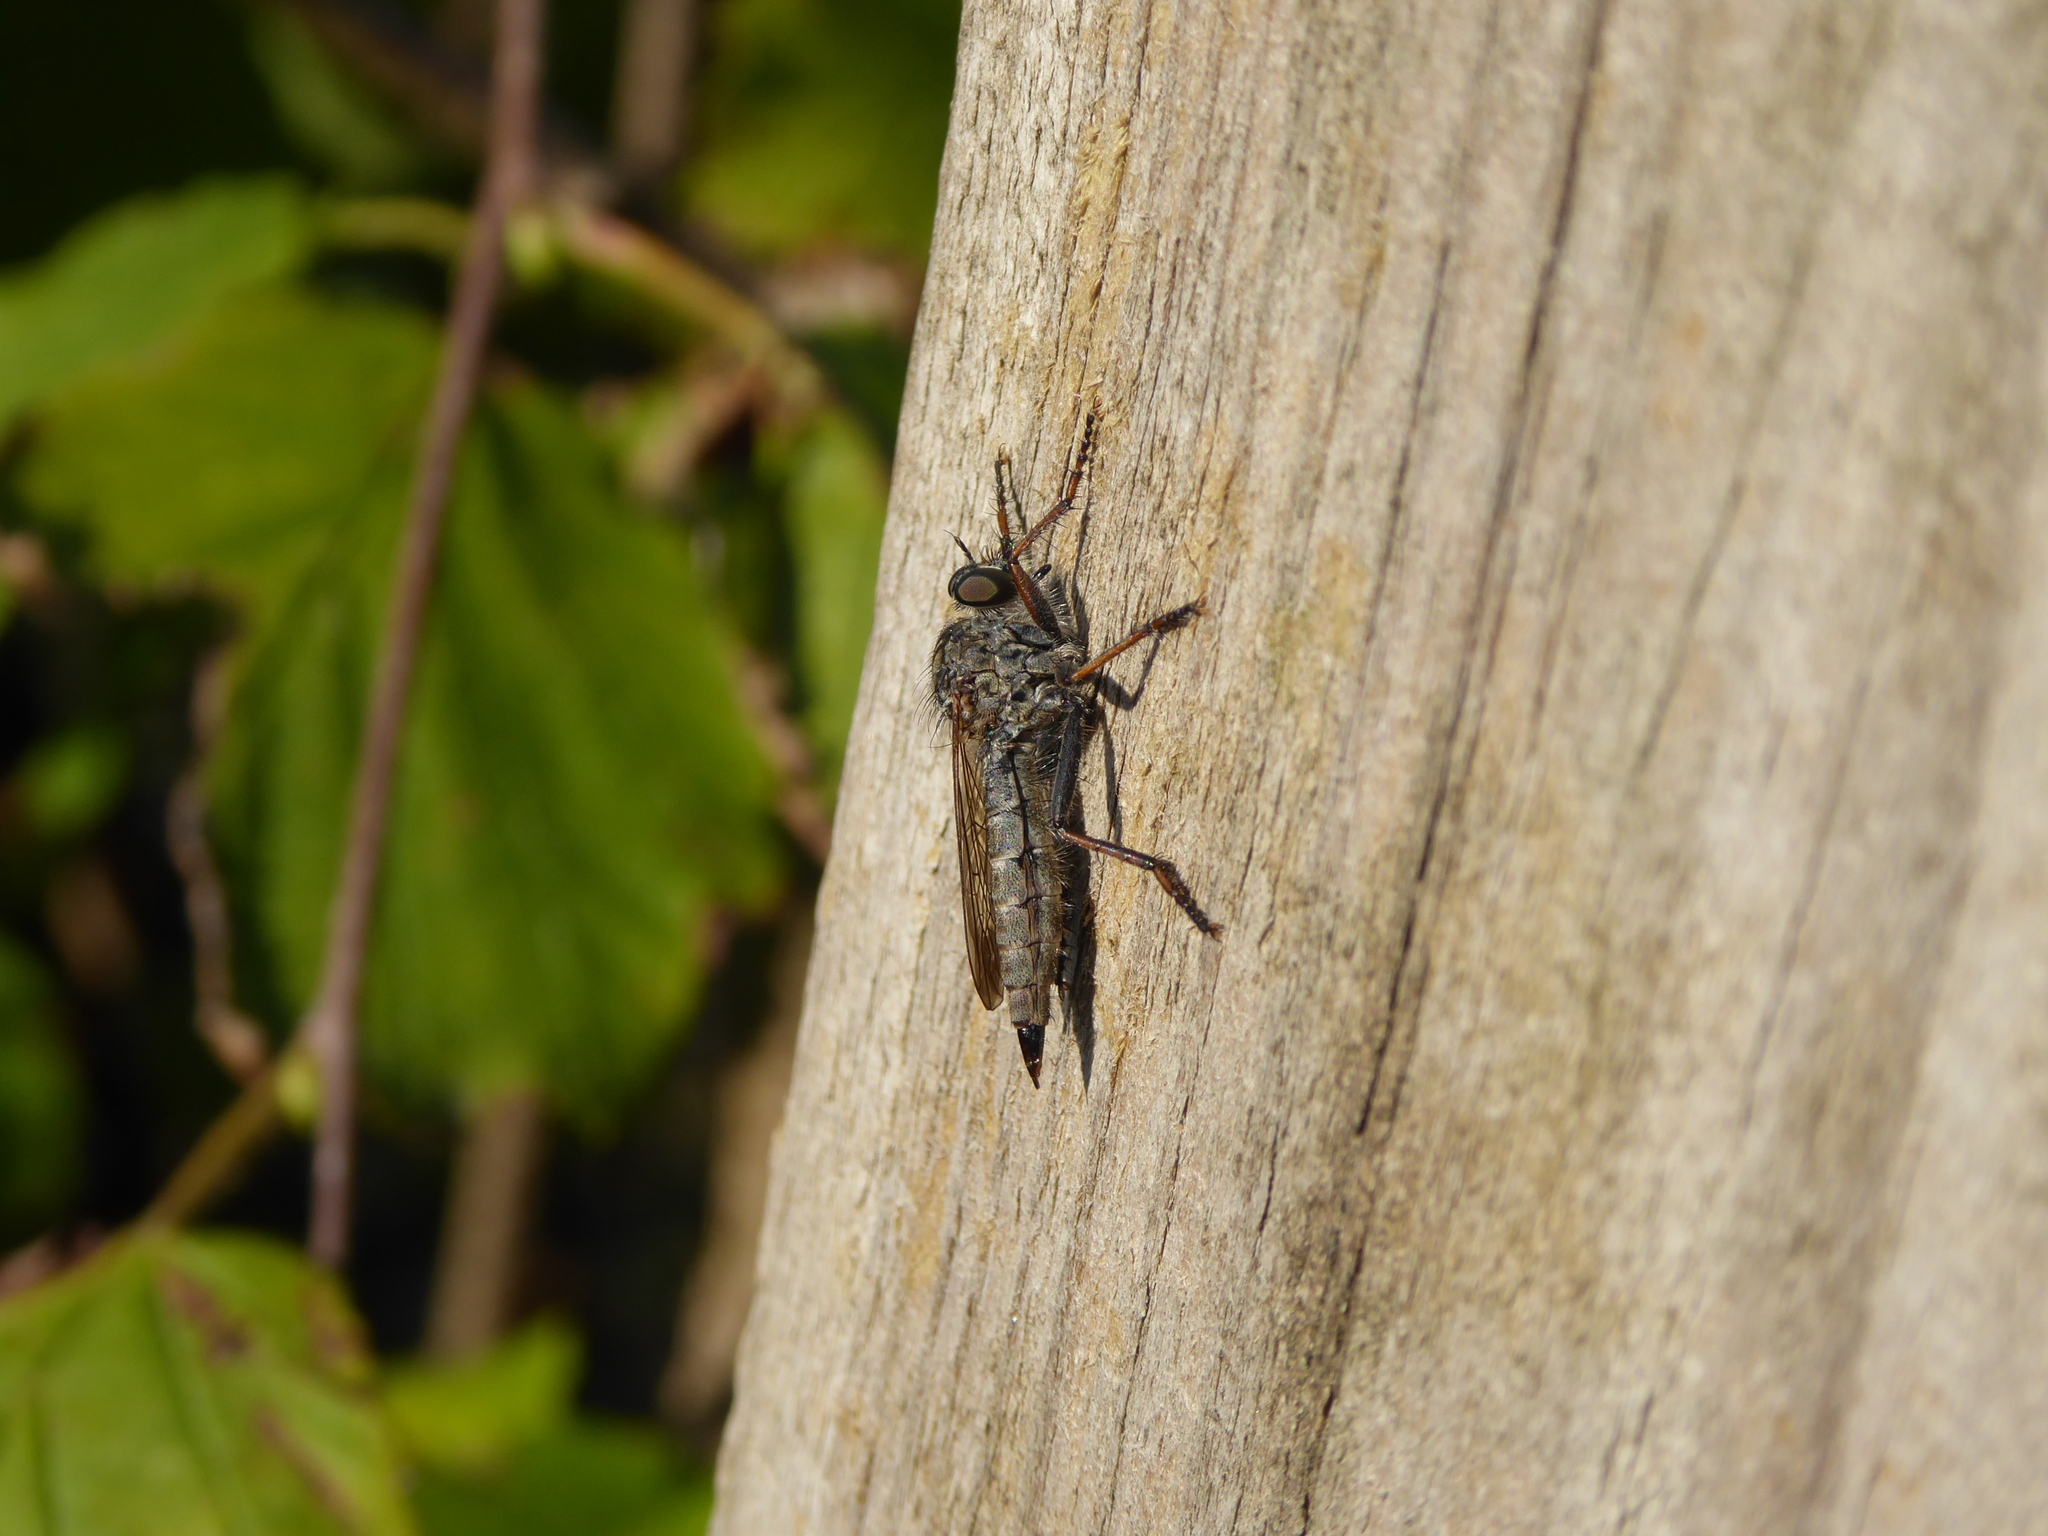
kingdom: Animalia
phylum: Arthropoda
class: Insecta
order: Diptera
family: Asilidae
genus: Machimus
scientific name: Machimus atricapillus
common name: Kite-tailed robberfly
